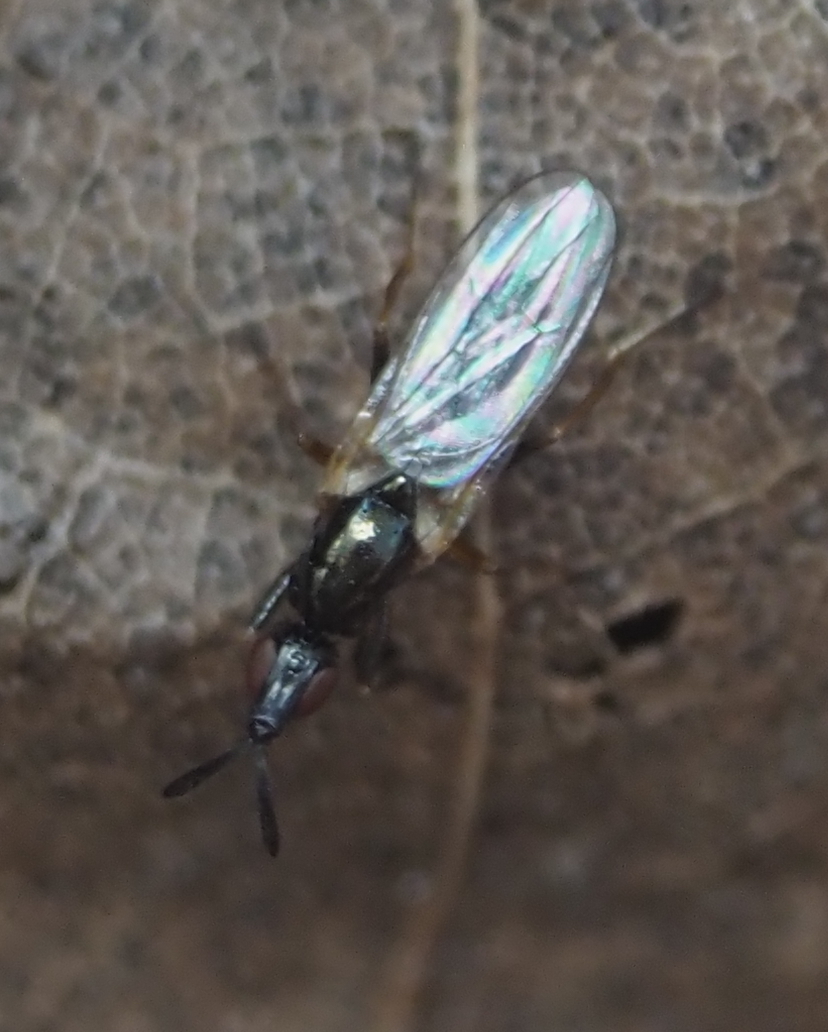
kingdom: Animalia
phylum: Arthropoda
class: Insecta
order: Diptera
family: Piophilidae
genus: Prochyliza
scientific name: Prochyliza xanthostoma
